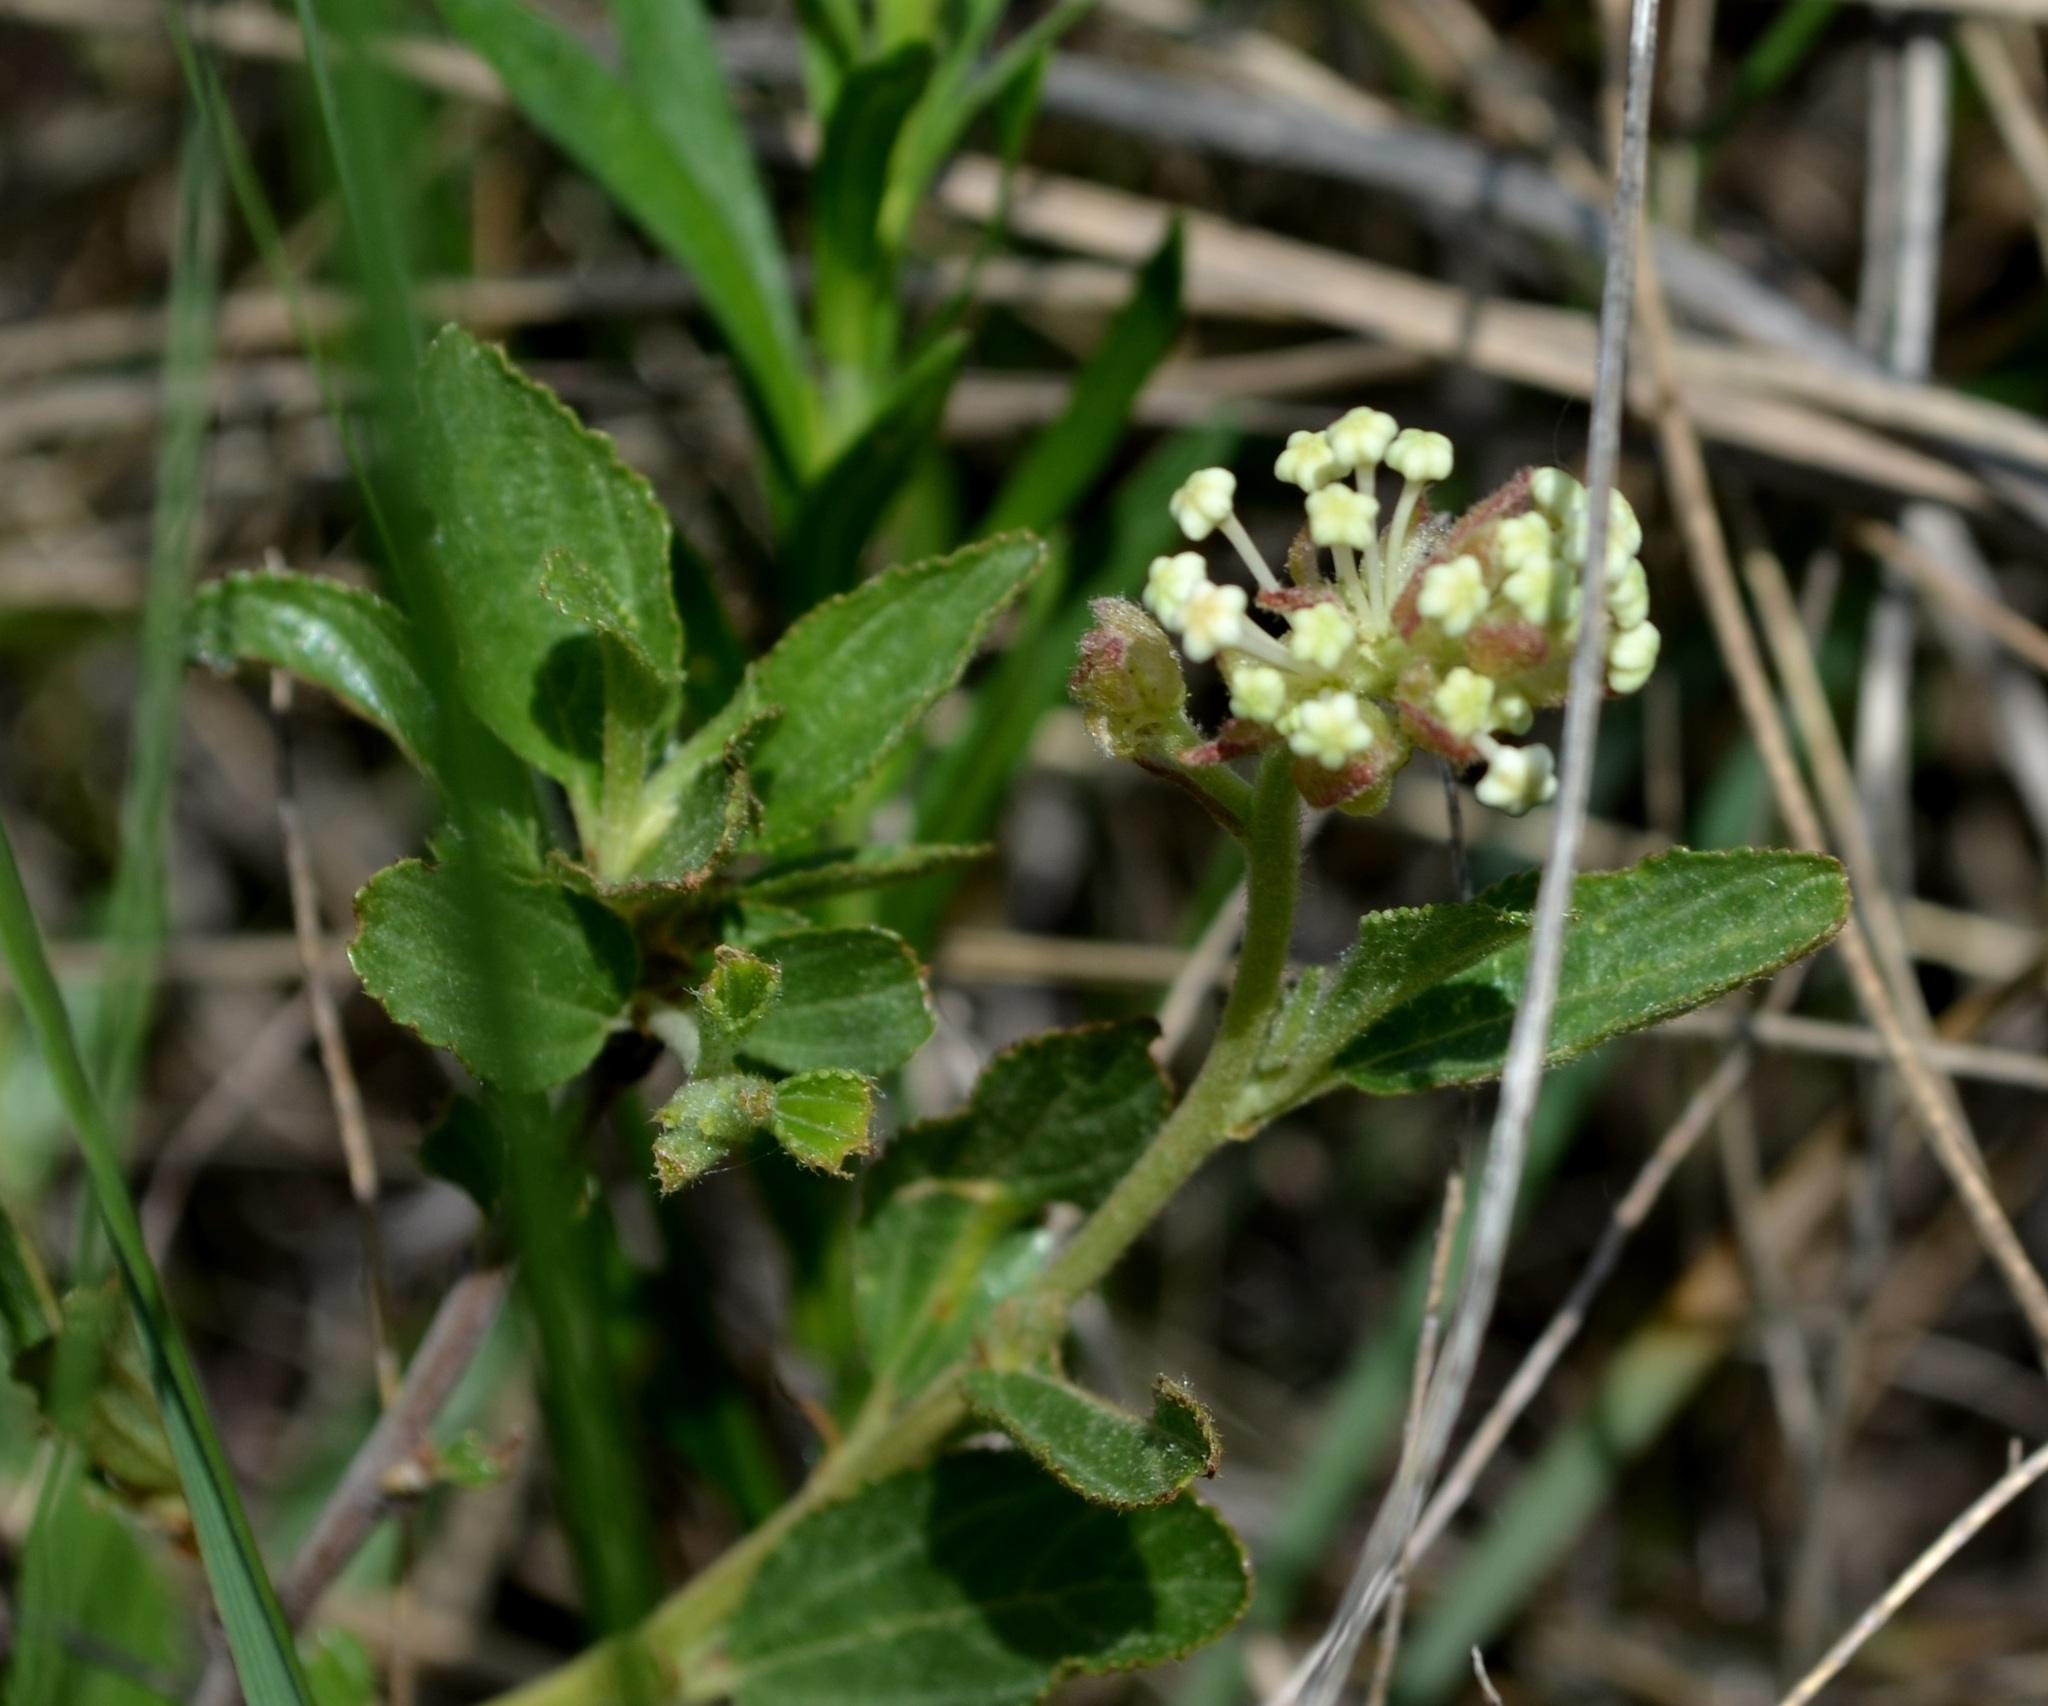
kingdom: Plantae
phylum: Tracheophyta
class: Magnoliopsida
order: Rosales
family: Rhamnaceae
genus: Ceanothus
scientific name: Ceanothus herbaceus
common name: Inland ceanothus
